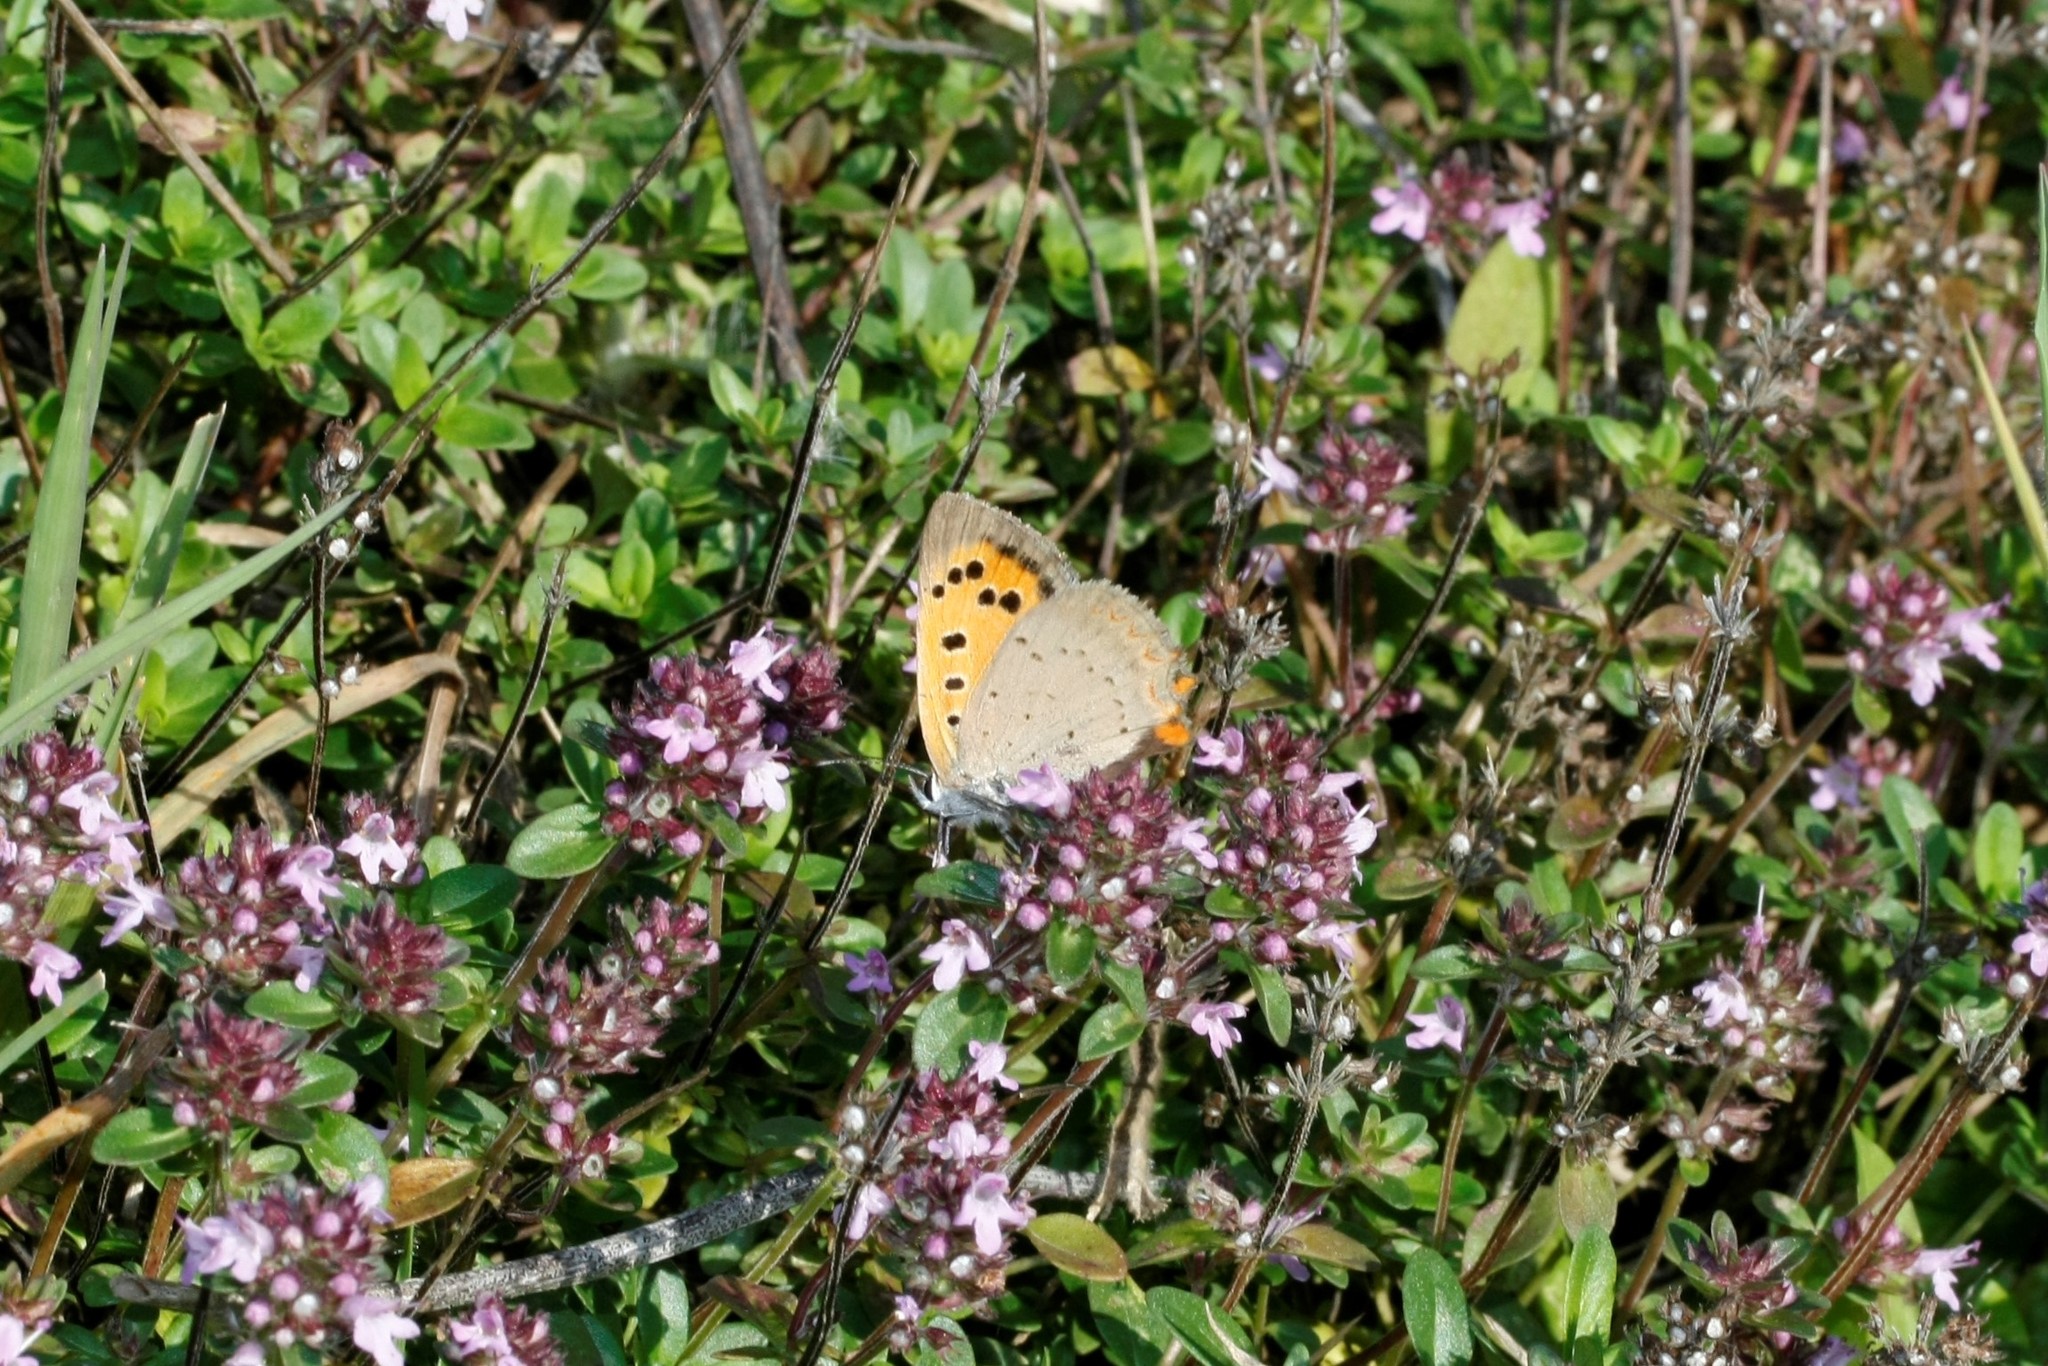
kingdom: Animalia
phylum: Arthropoda
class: Insecta
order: Lepidoptera
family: Lycaenidae
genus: Lycaena
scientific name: Lycaena phlaeas
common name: Small copper
